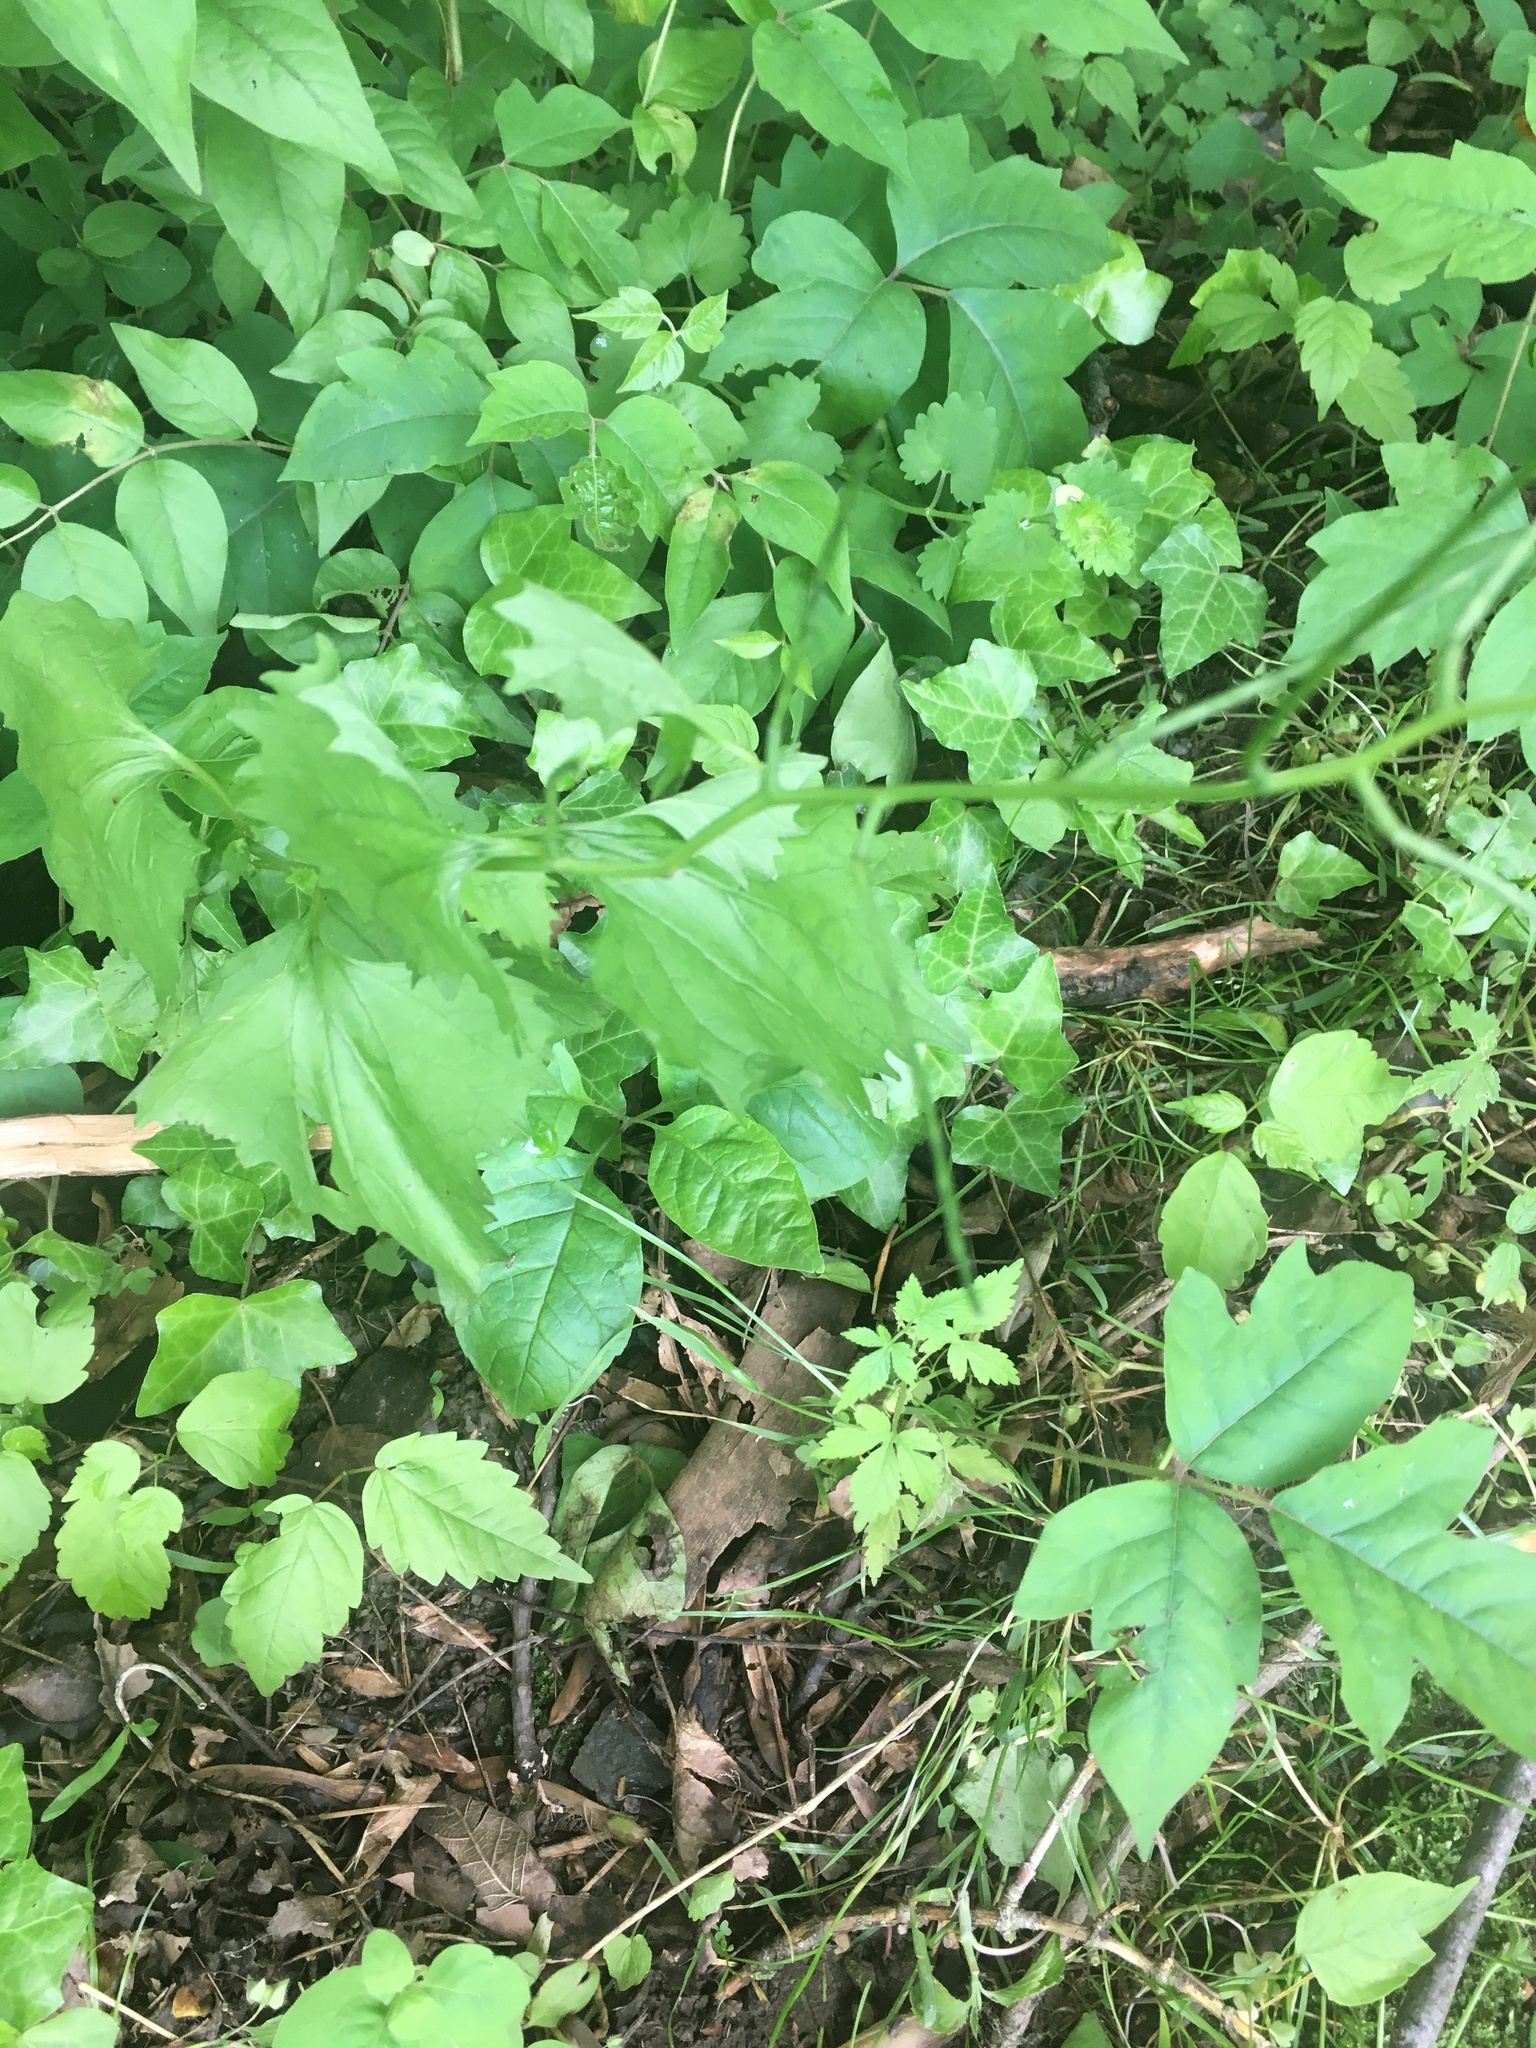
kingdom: Plantae
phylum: Tracheophyta
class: Magnoliopsida
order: Brassicales
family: Brassicaceae
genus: Alliaria
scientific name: Alliaria petiolata
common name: Garlic mustard
